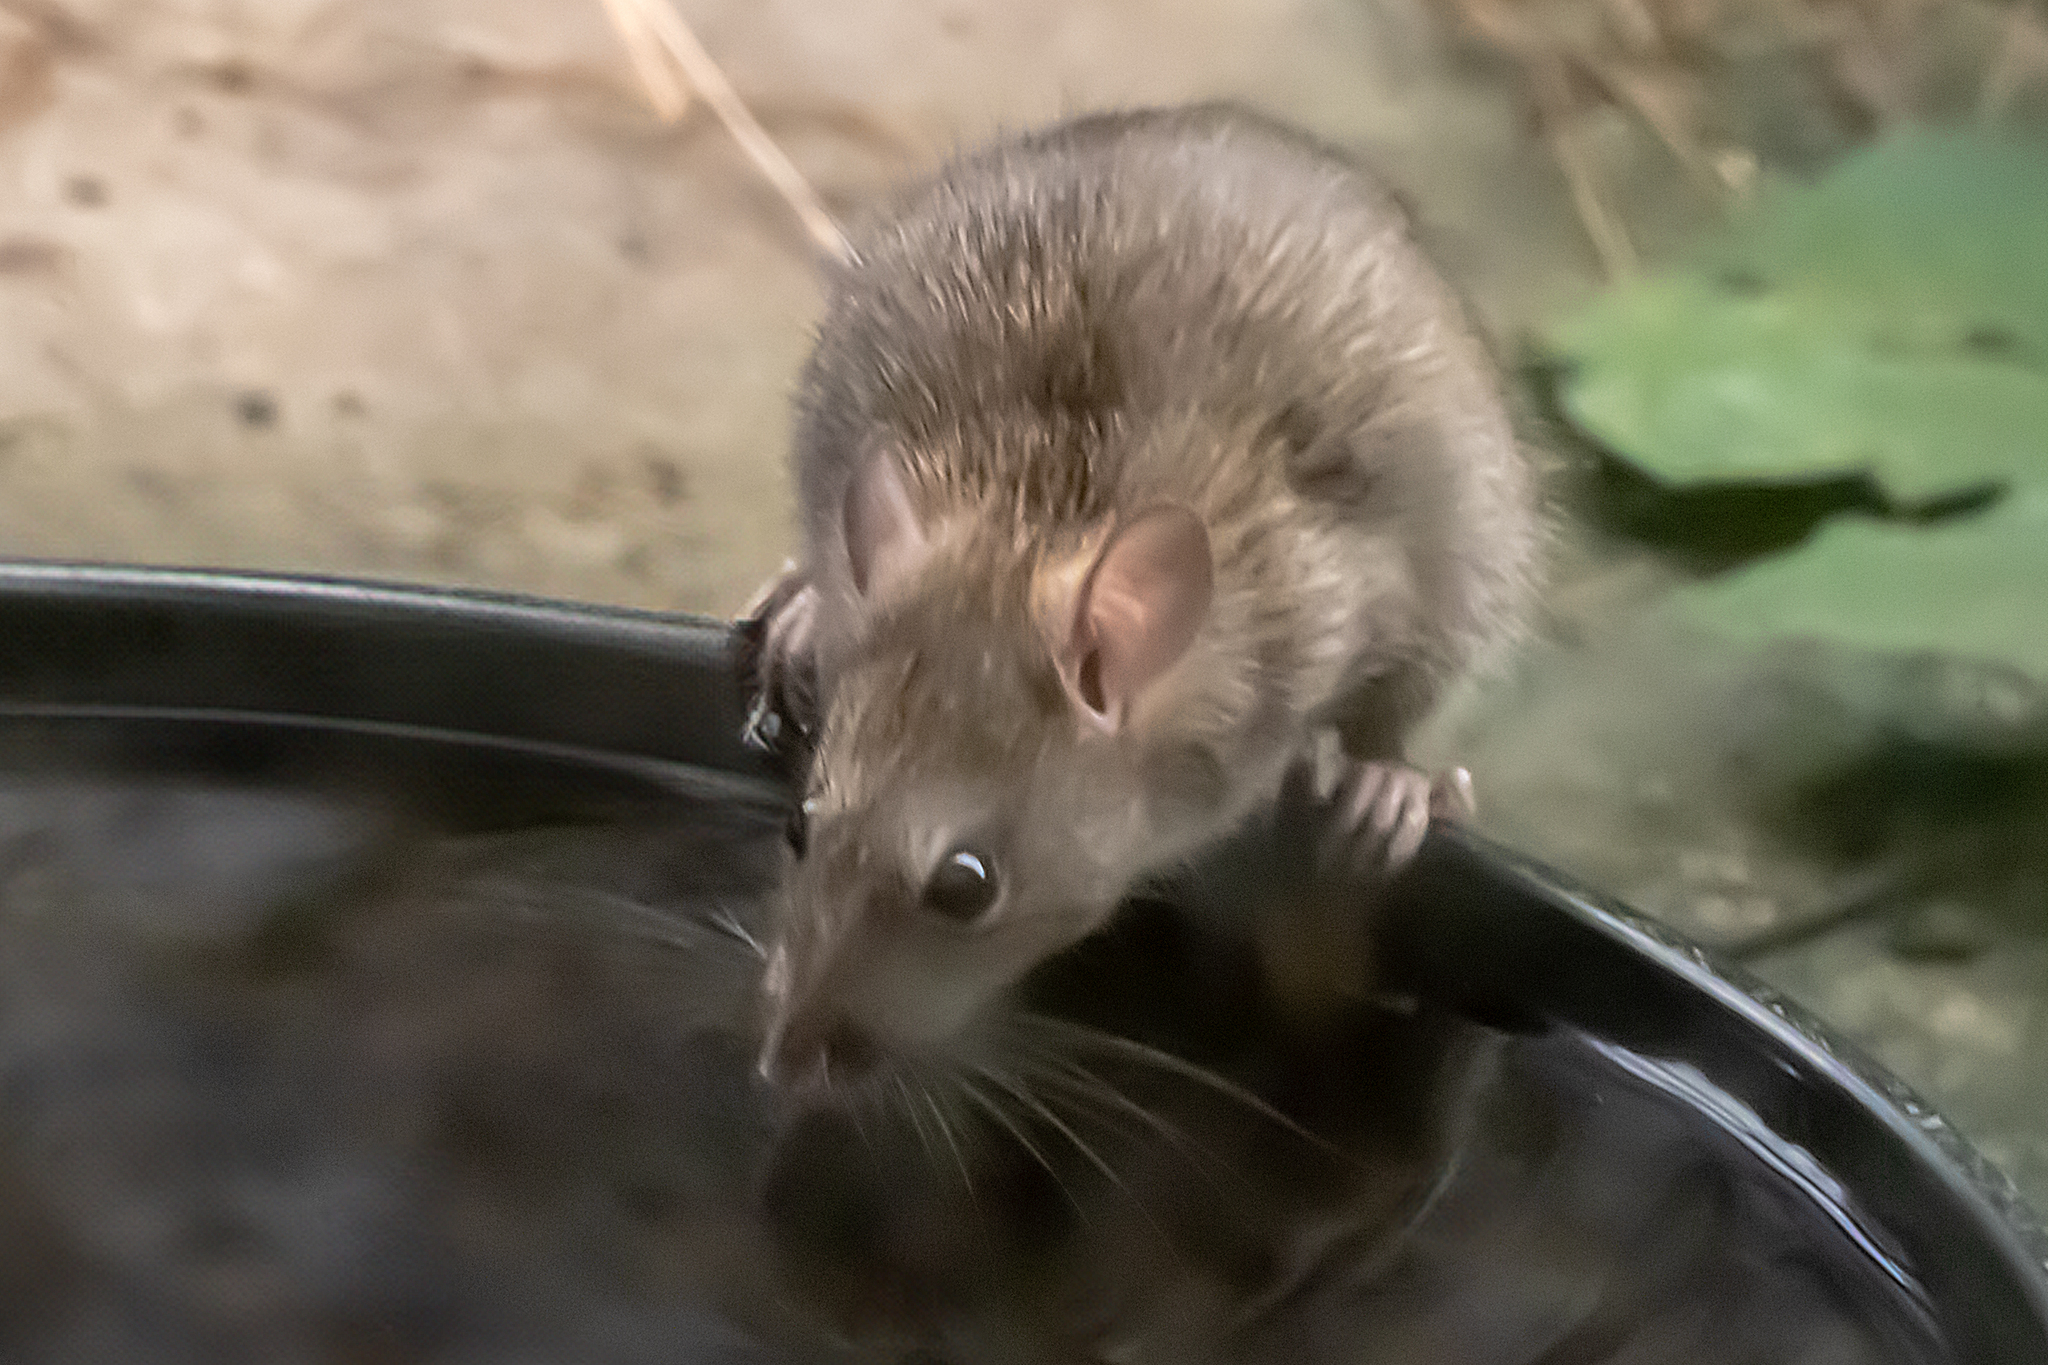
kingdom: Animalia
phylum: Chordata
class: Mammalia
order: Rodentia
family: Muridae
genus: Rattus
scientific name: Rattus rattus
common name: Black rat
